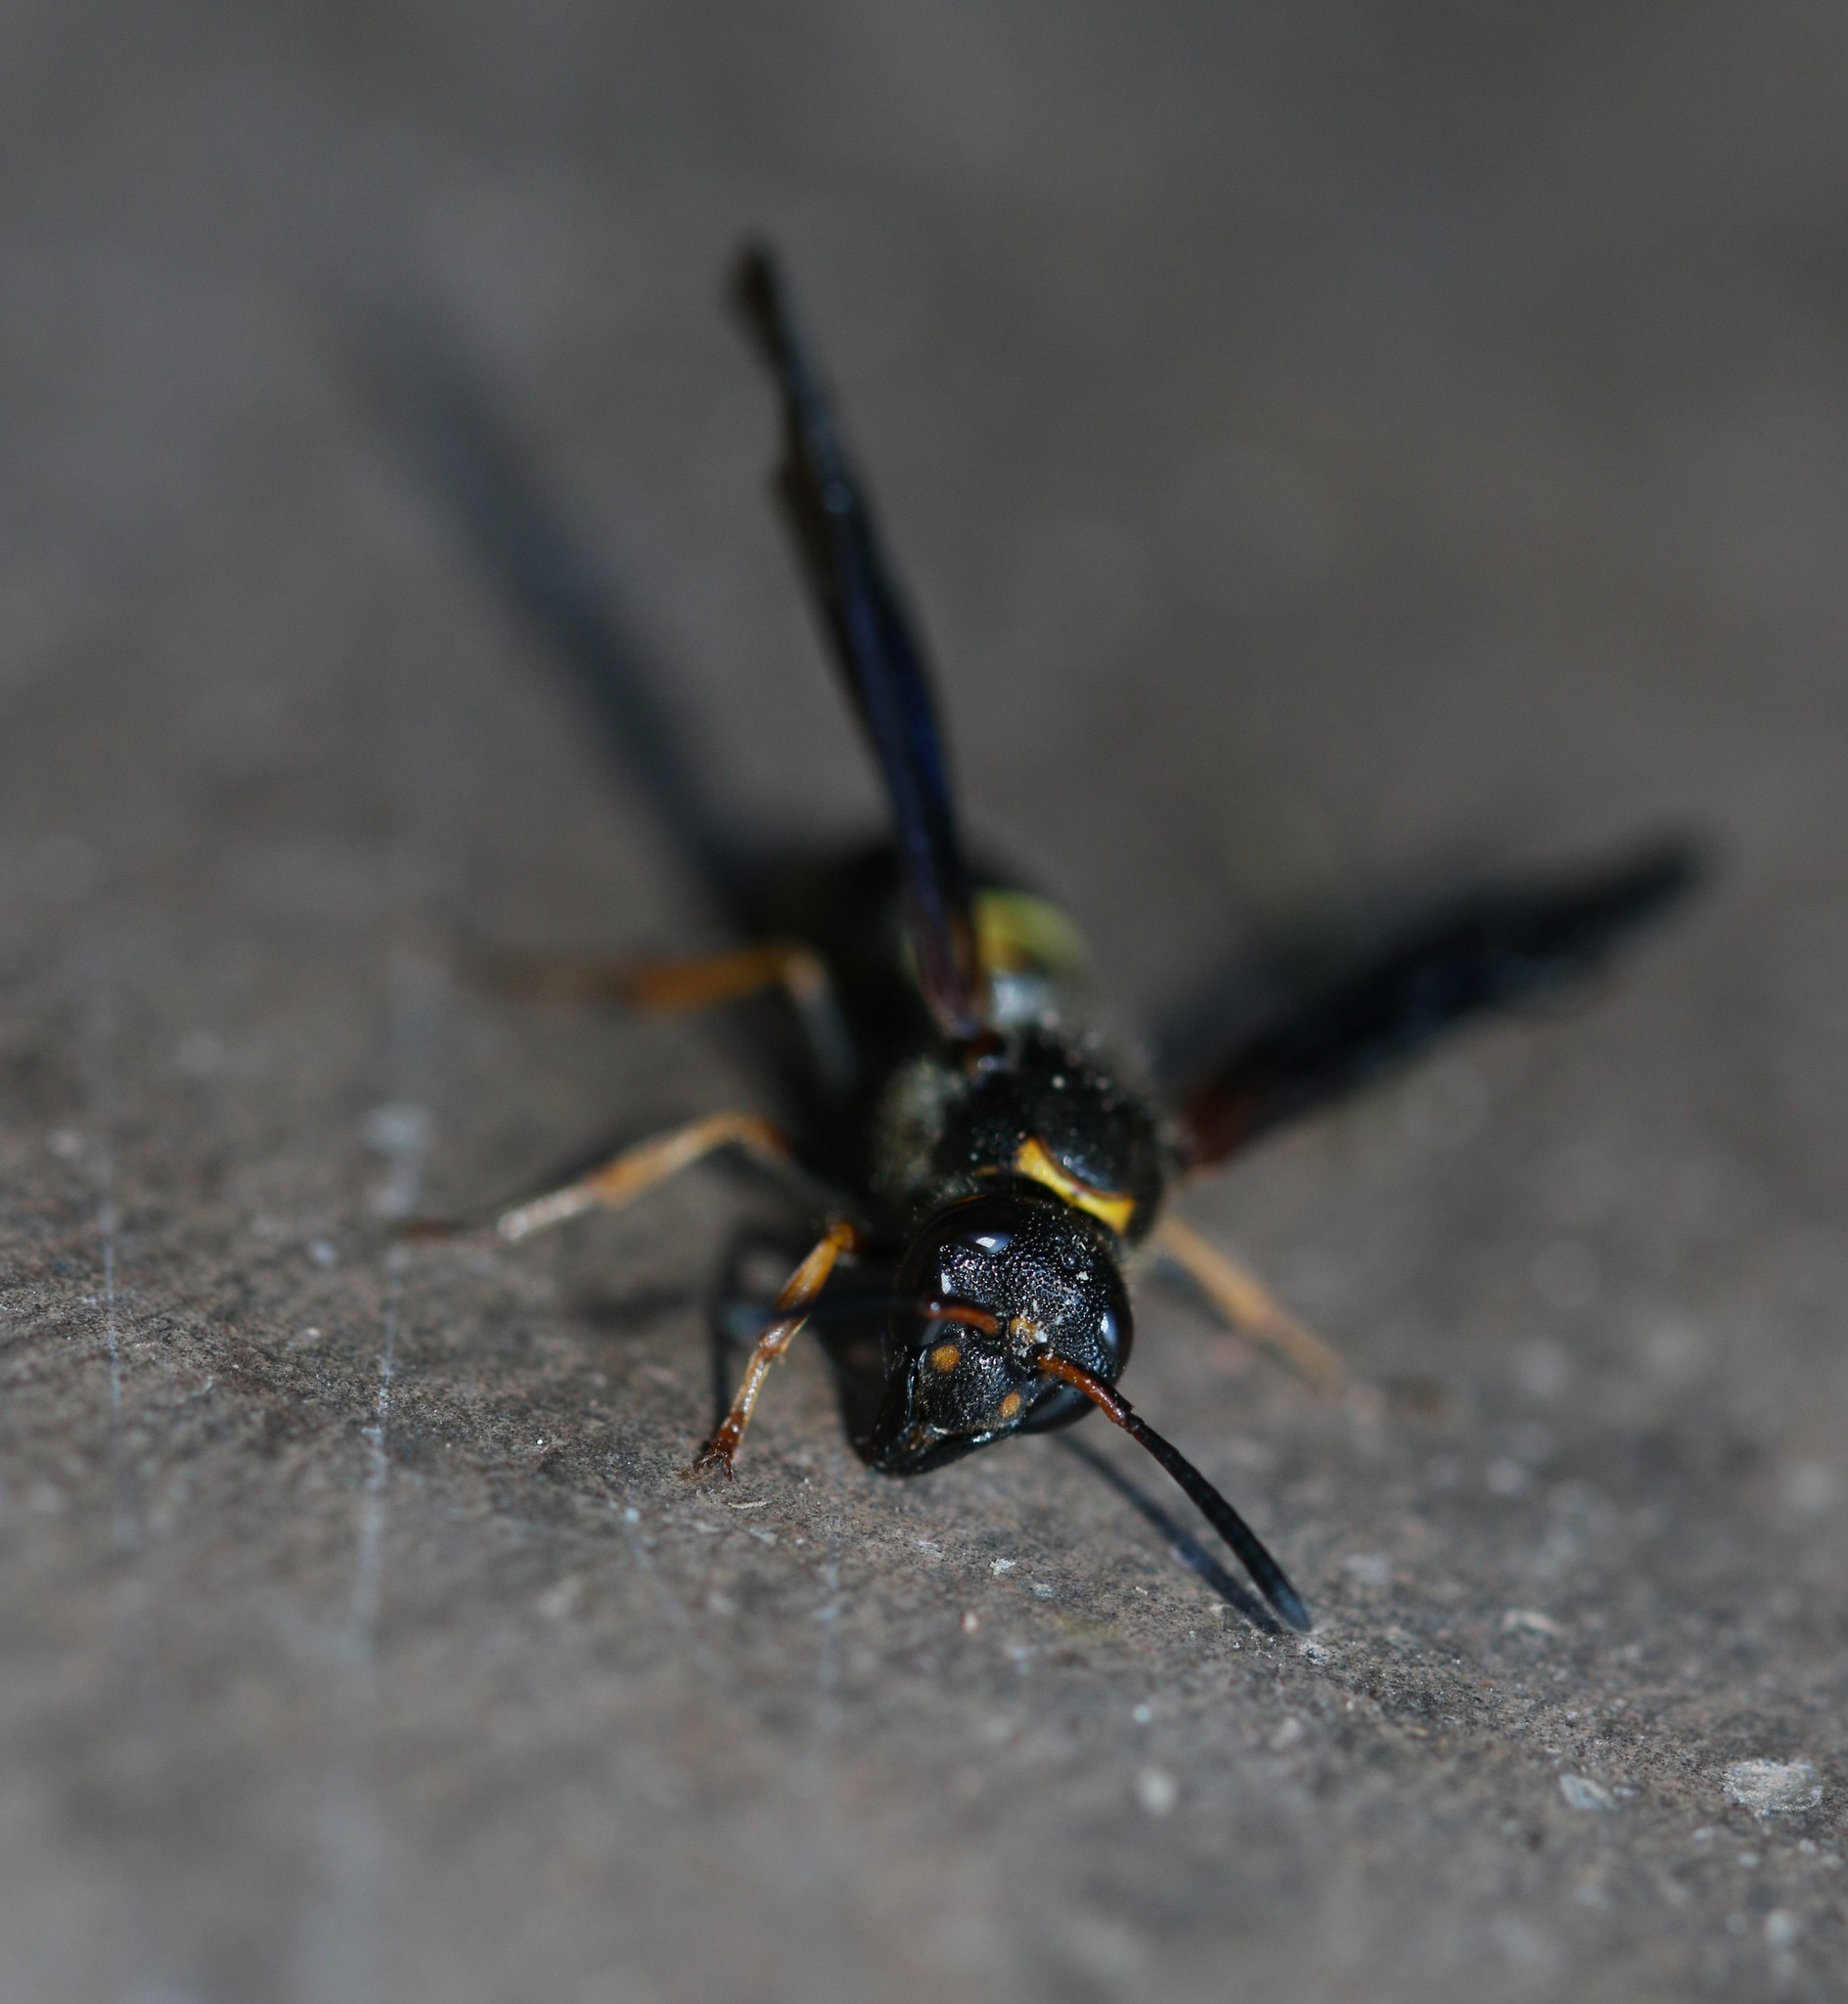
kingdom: Animalia
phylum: Arthropoda
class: Insecta
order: Hymenoptera
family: Vespidae
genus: Ancistrocerus
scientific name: Ancistrocerus unifasciatus
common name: One-banded mason wasp
